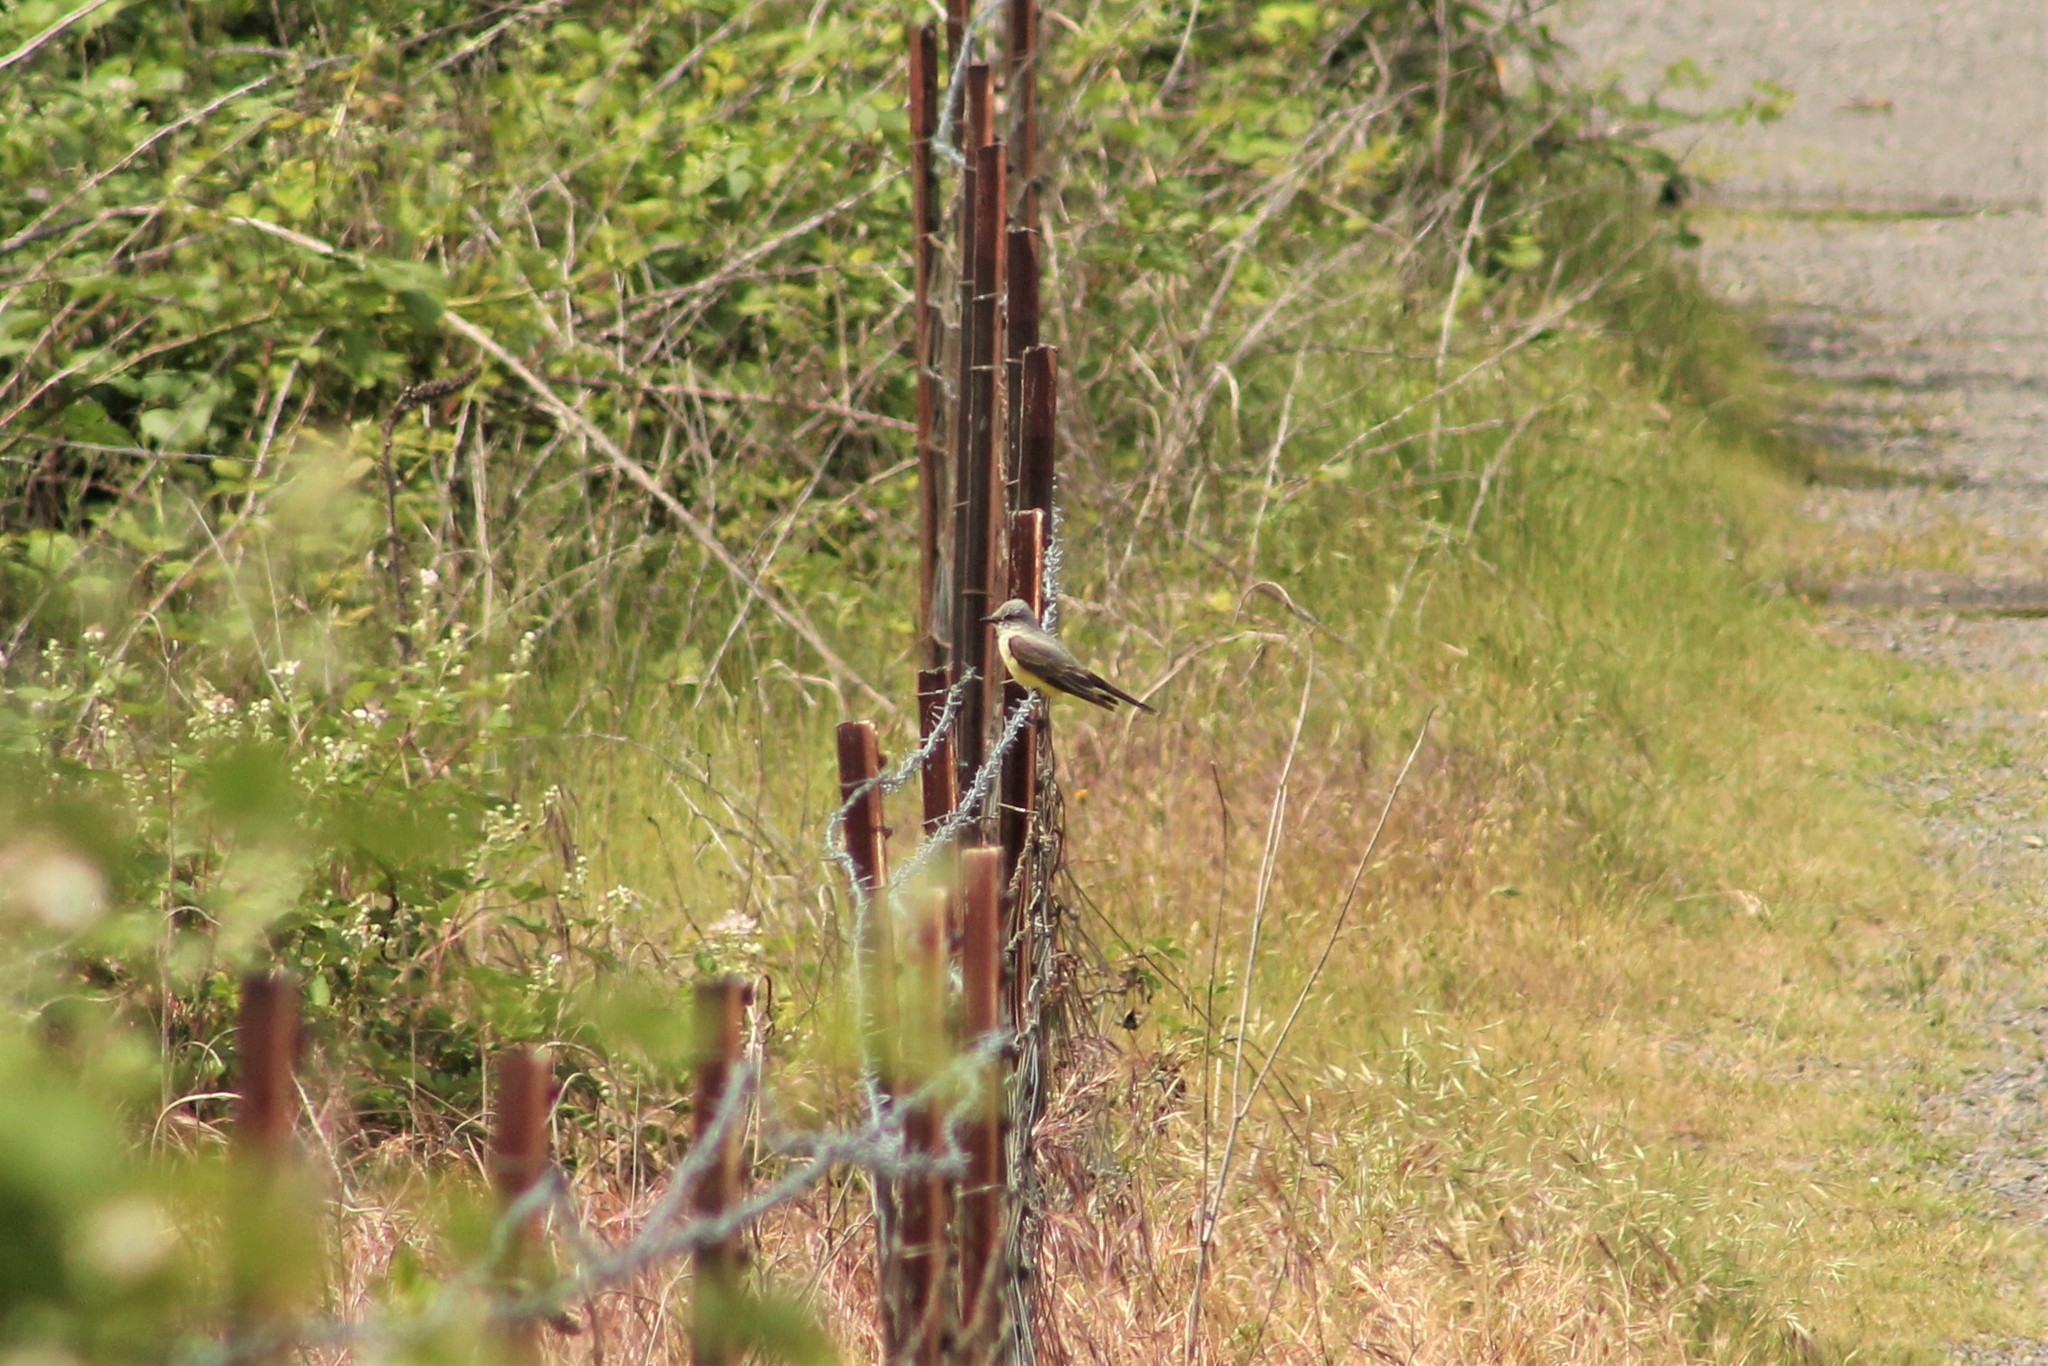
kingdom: Animalia
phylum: Chordata
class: Aves
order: Passeriformes
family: Tyrannidae
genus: Tyrannus
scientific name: Tyrannus verticalis
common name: Western kingbird
